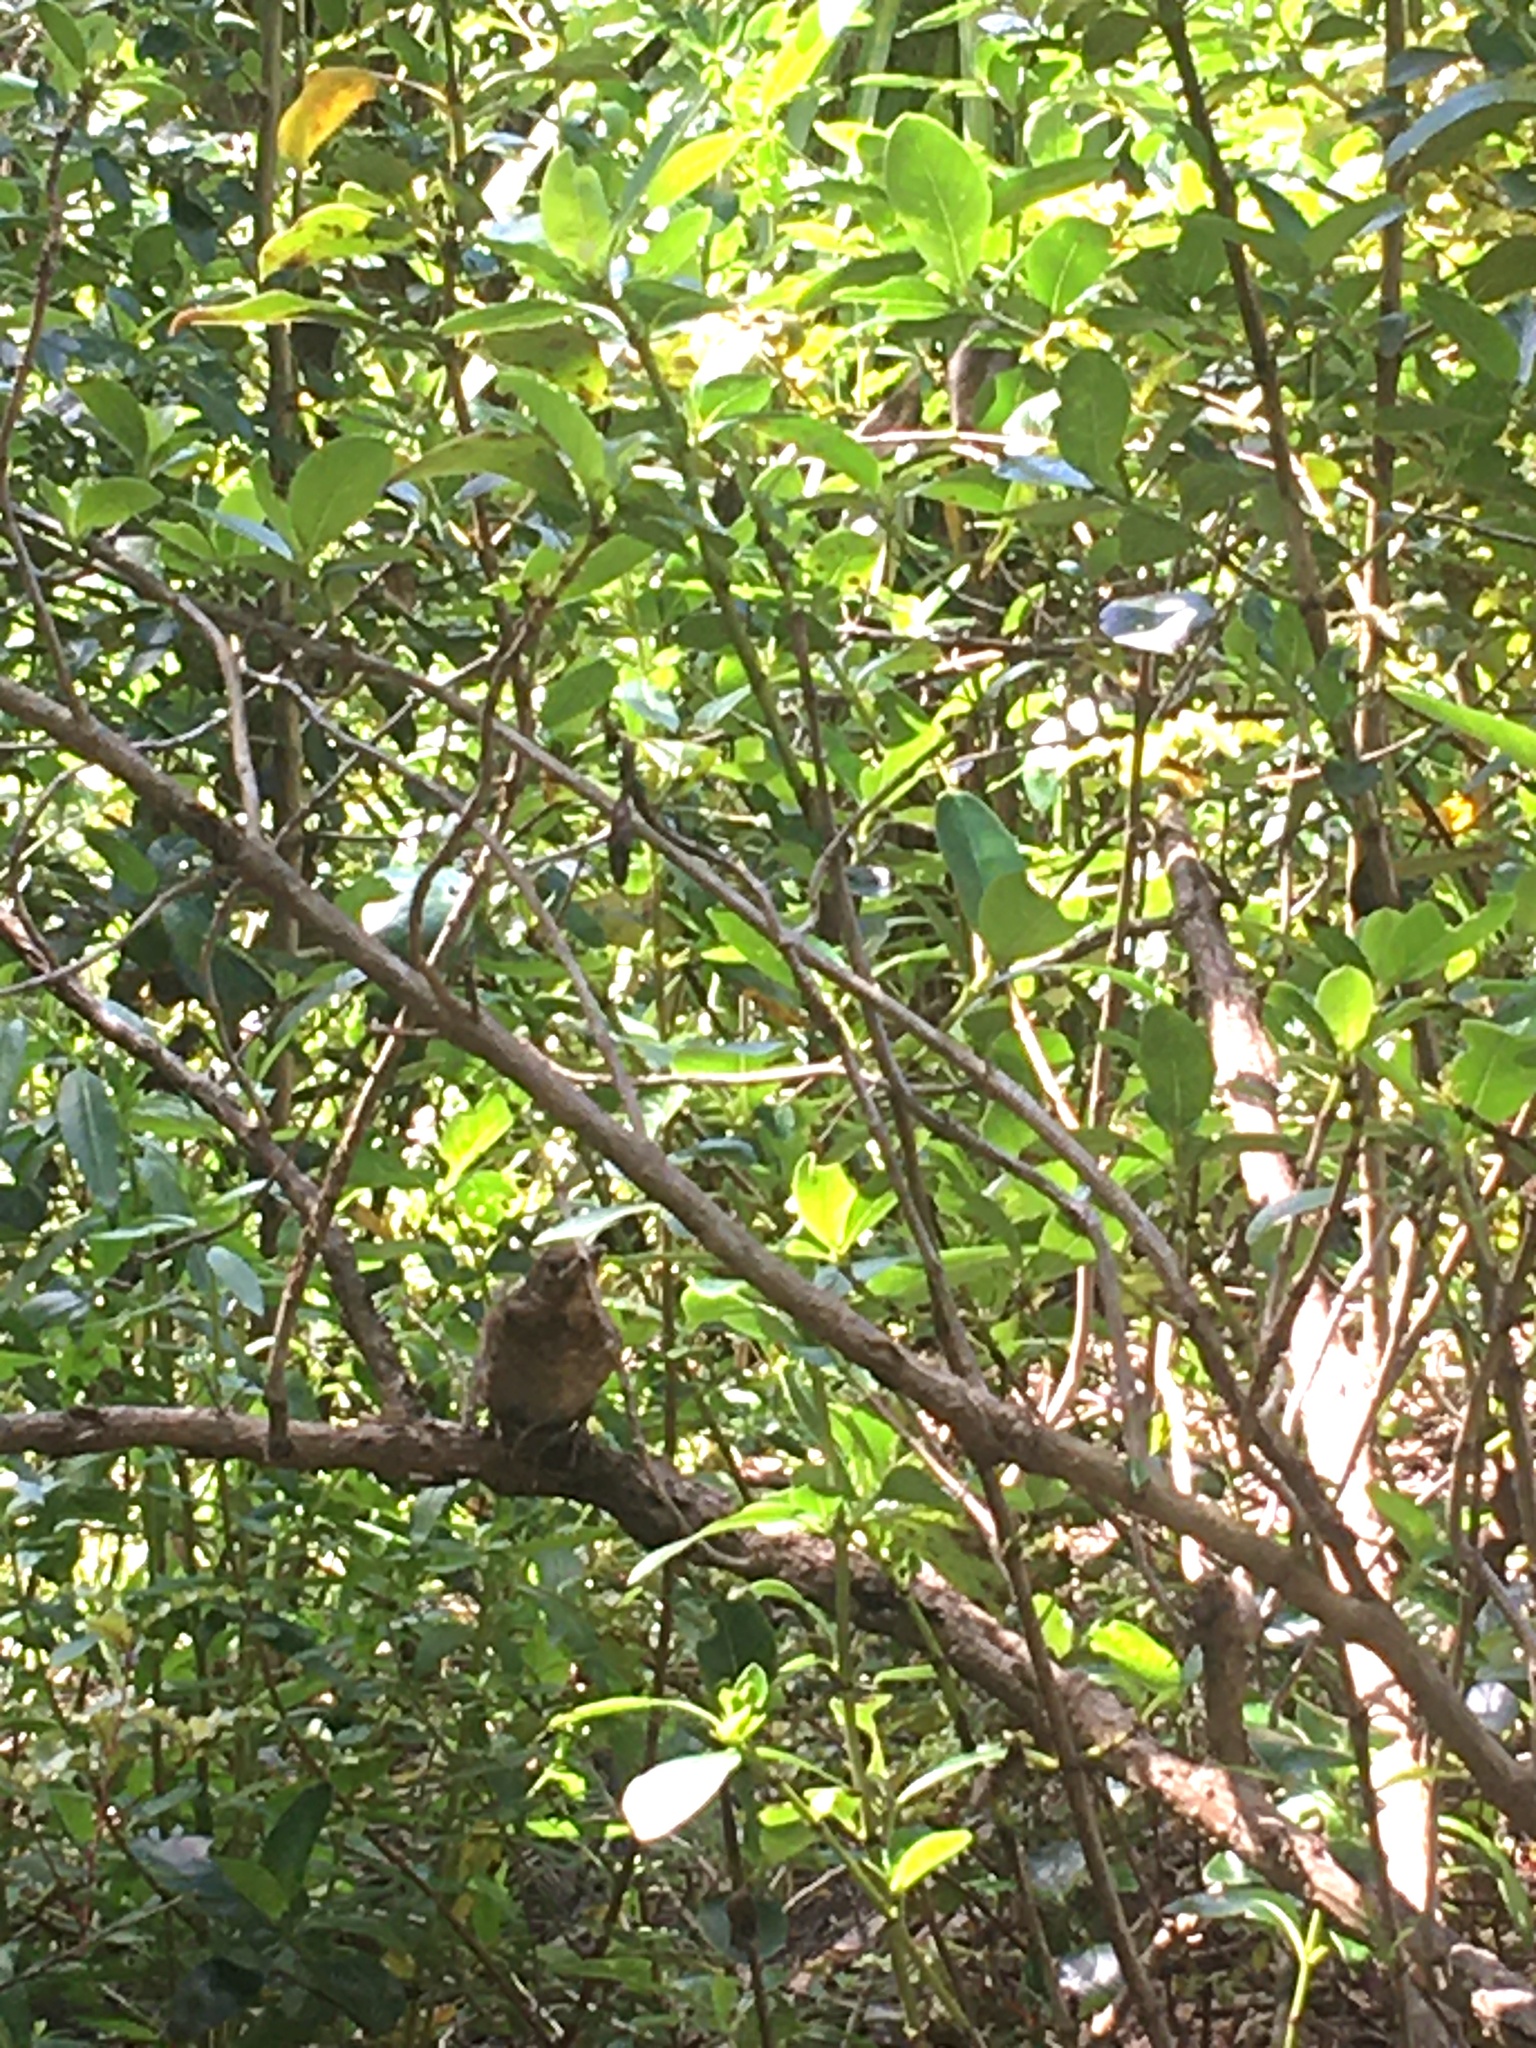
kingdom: Animalia
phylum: Chordata
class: Aves
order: Passeriformes
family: Turdidae
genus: Turdus
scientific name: Turdus merula
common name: Common blackbird
